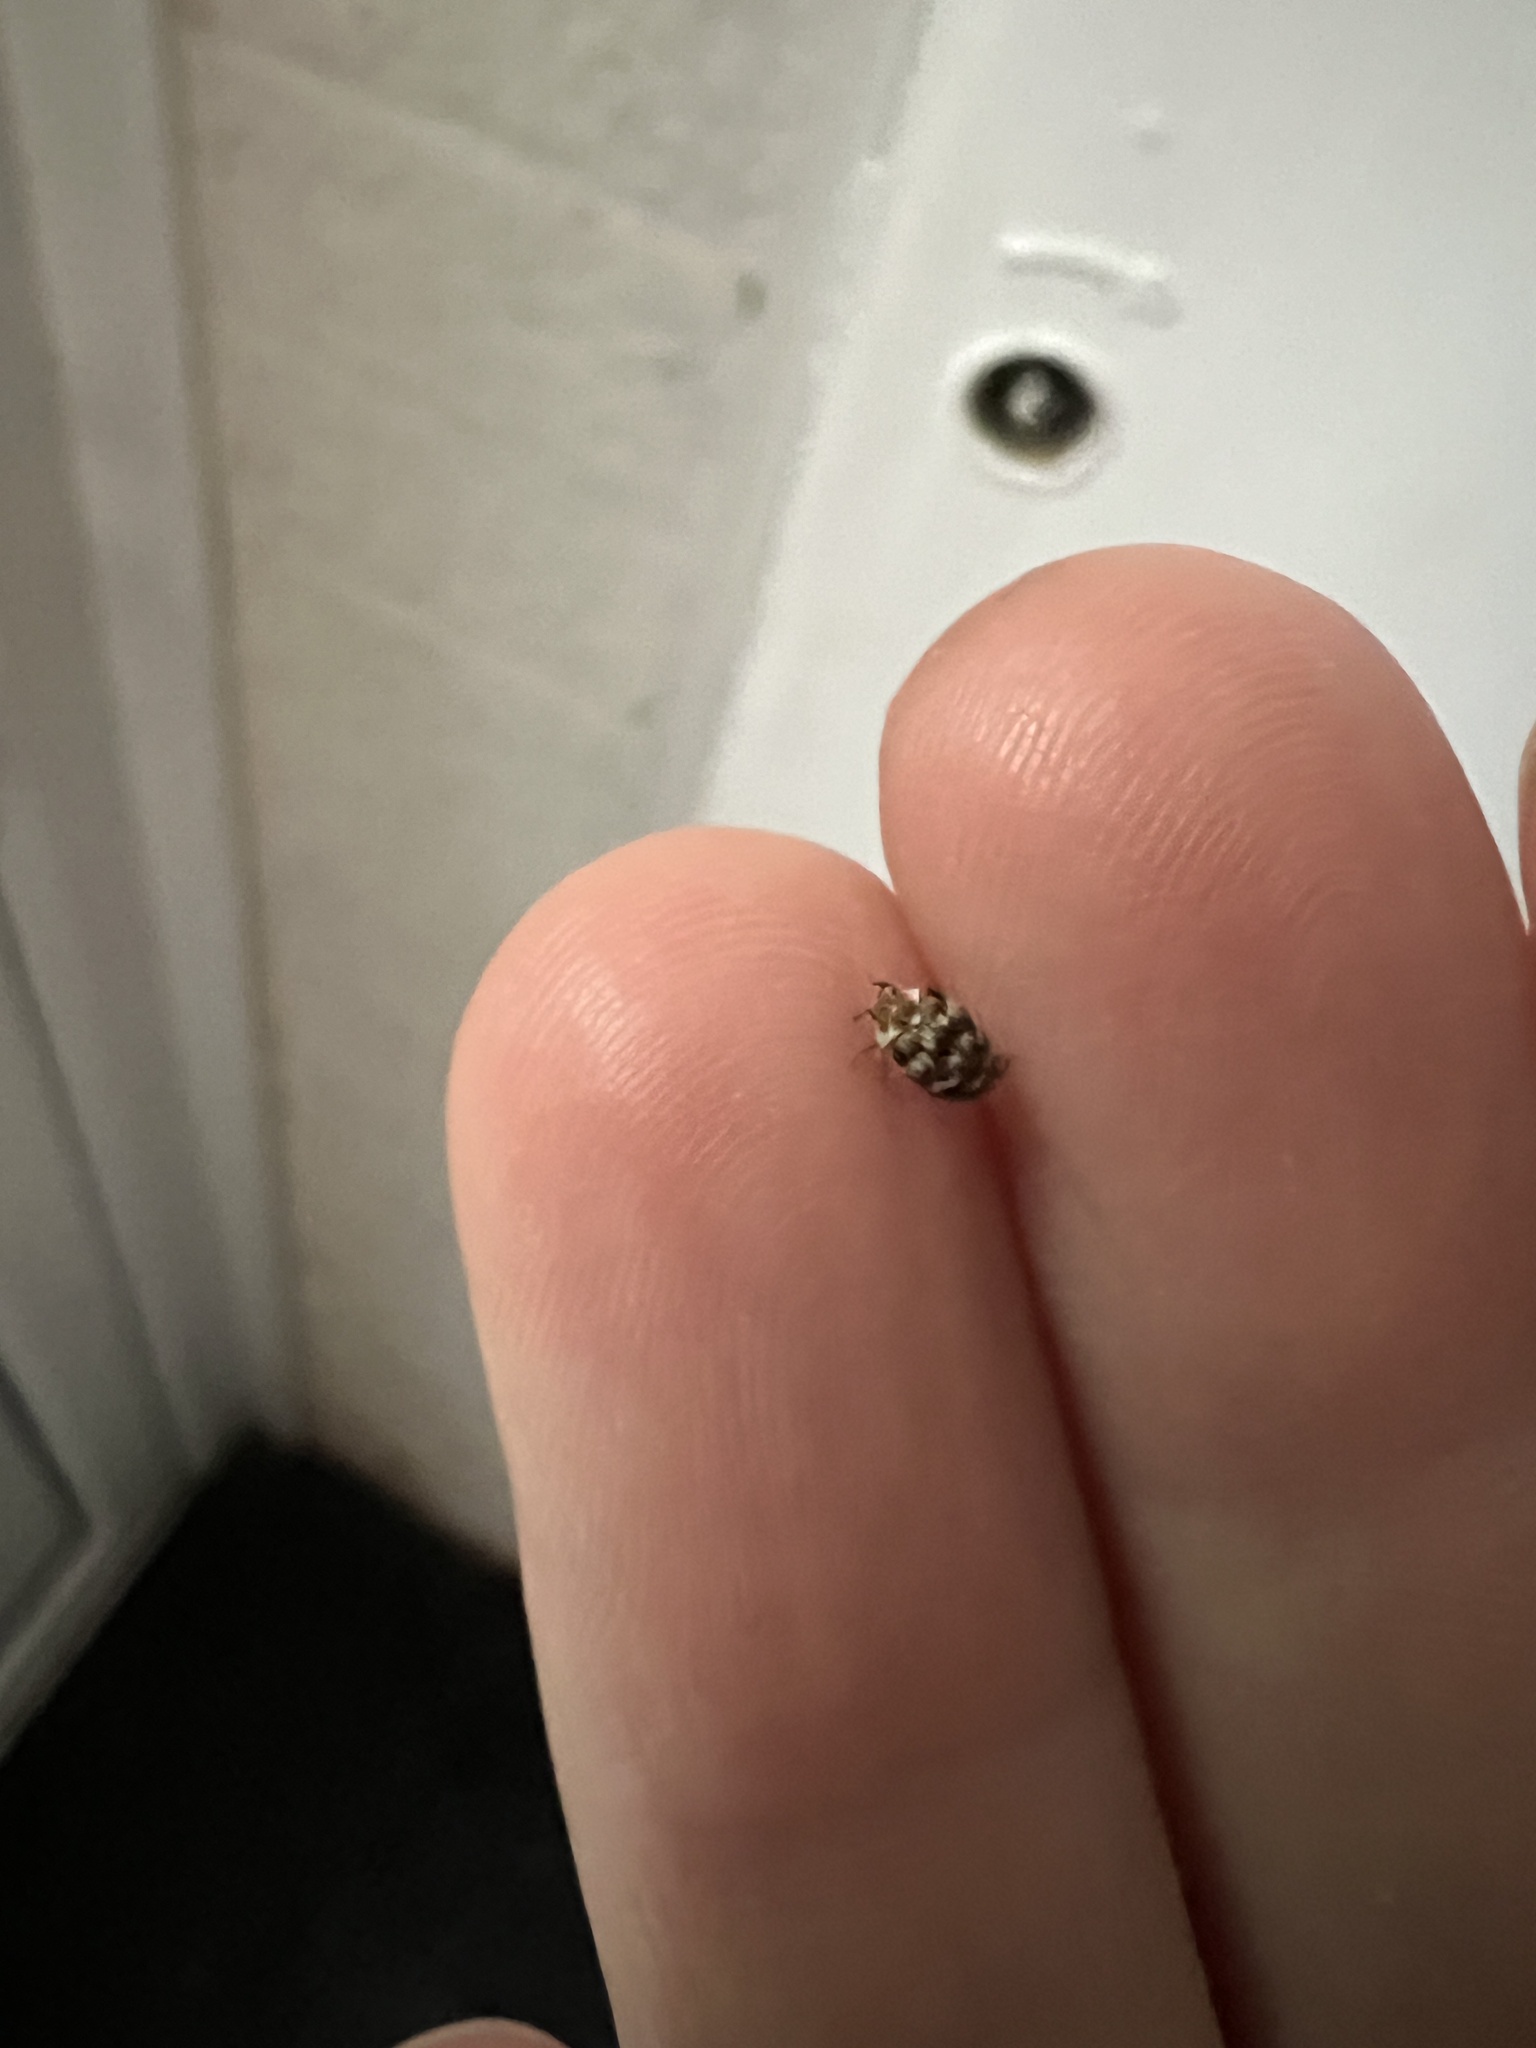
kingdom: Animalia
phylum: Arthropoda
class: Insecta
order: Coleoptera
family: Dermestidae
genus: Anthrenus
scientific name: Anthrenus verbasci
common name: Varied carpet beetle
